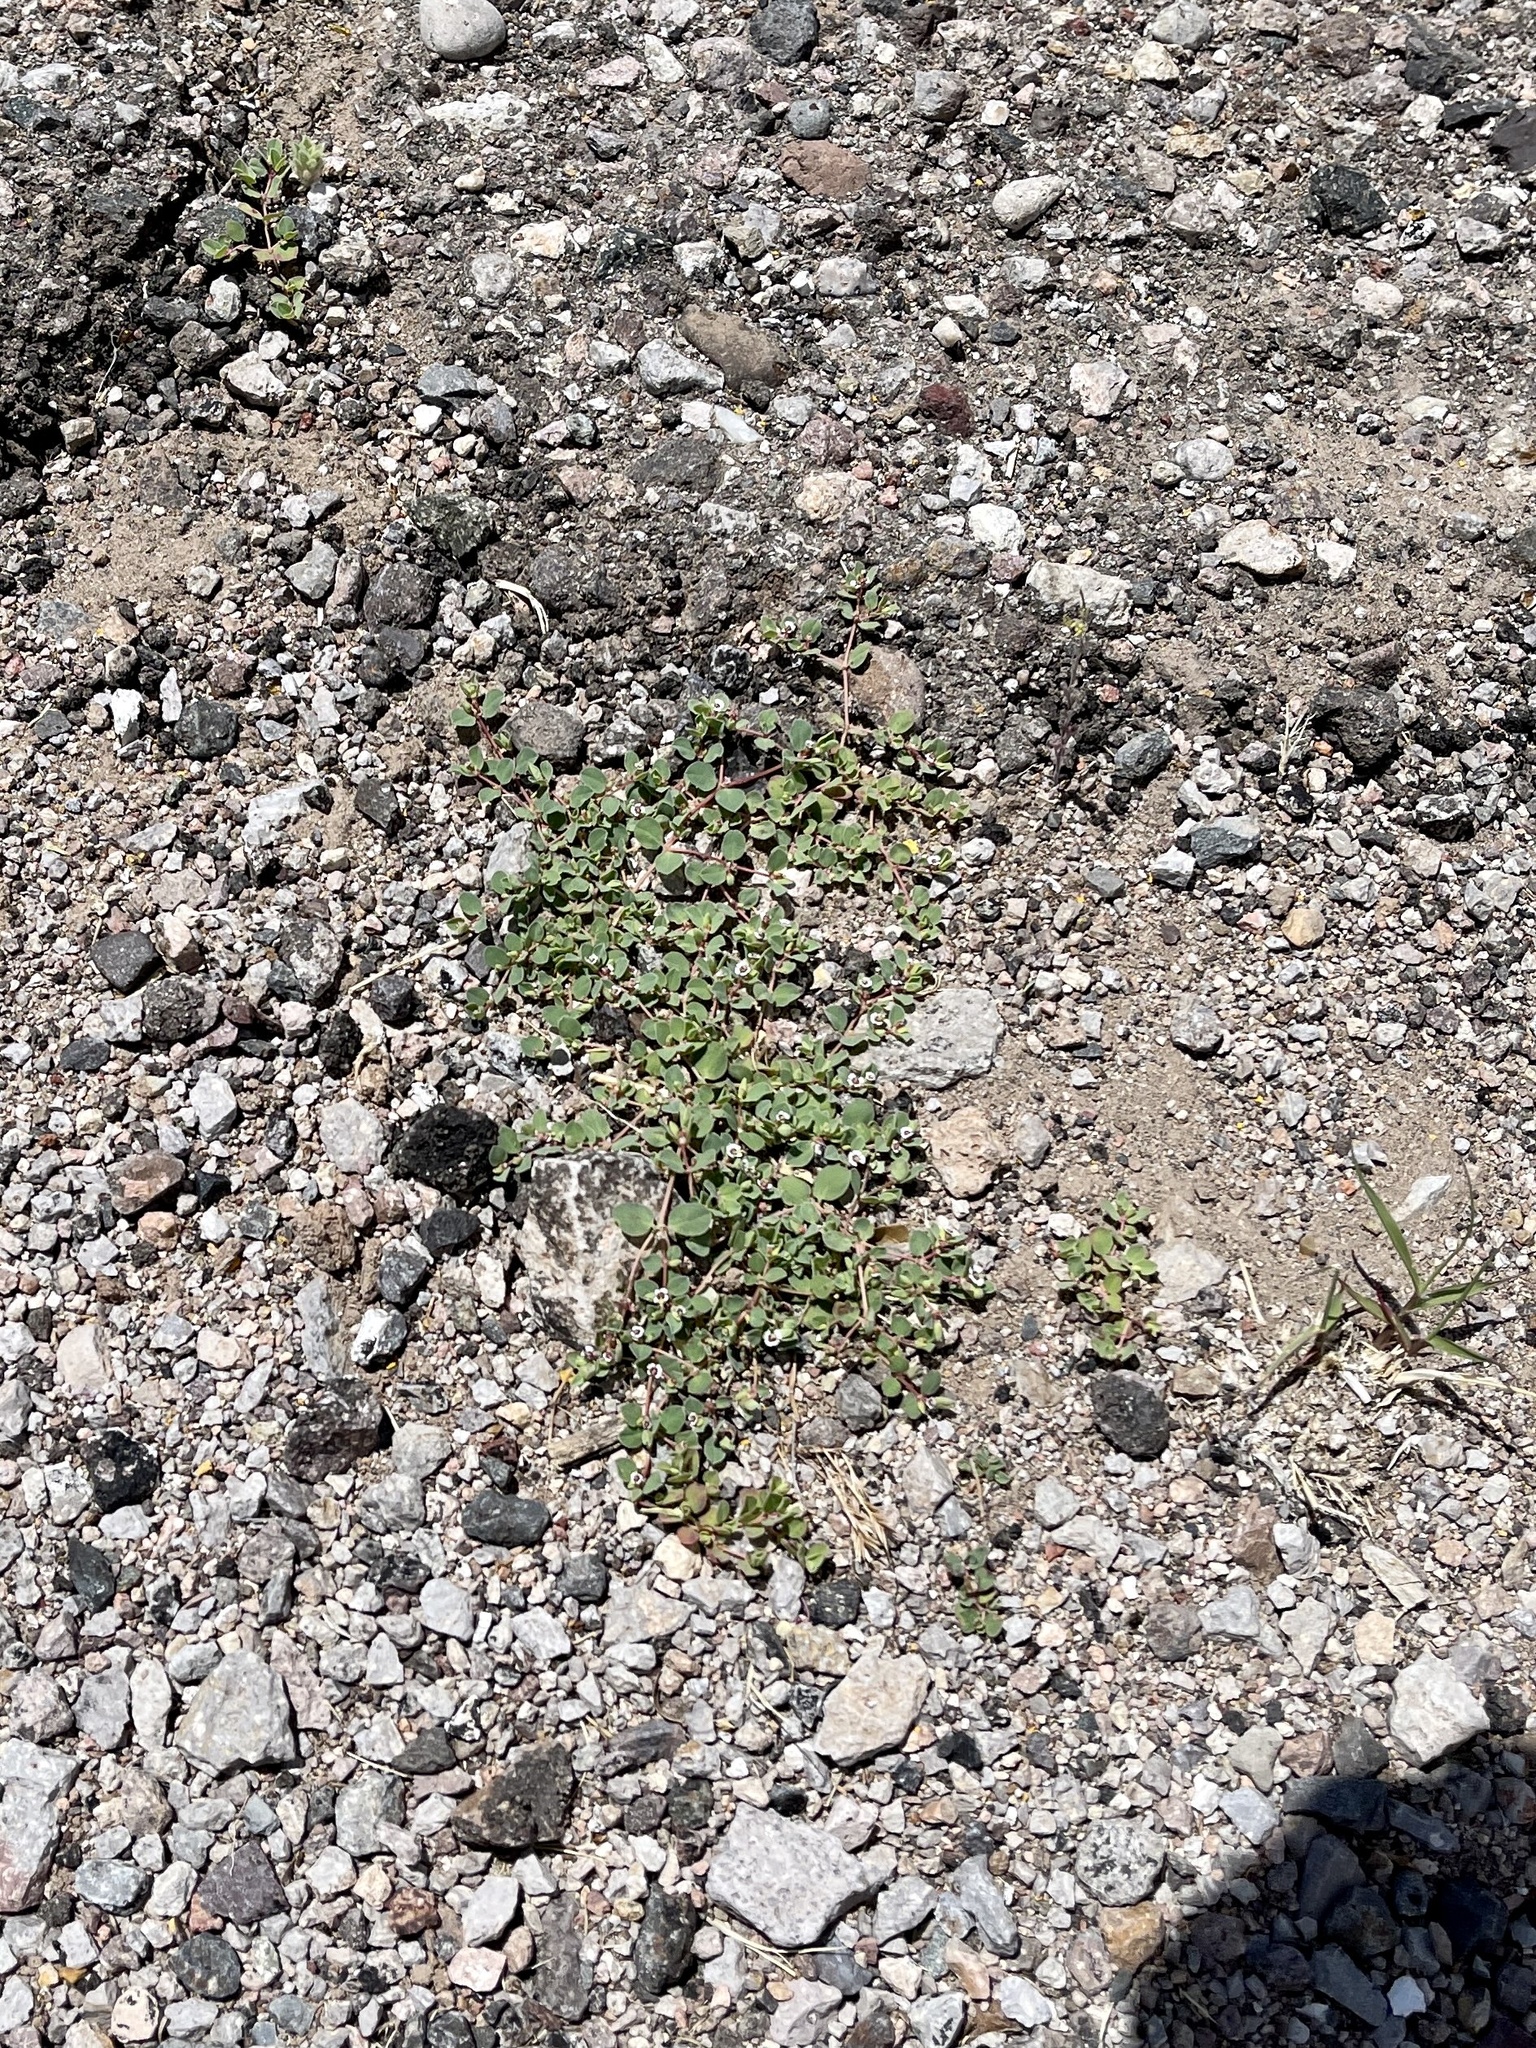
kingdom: Plantae
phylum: Tracheophyta
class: Magnoliopsida
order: Malpighiales
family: Euphorbiaceae
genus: Euphorbia
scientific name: Euphorbia albomarginata
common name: Whitemargin sandmat
